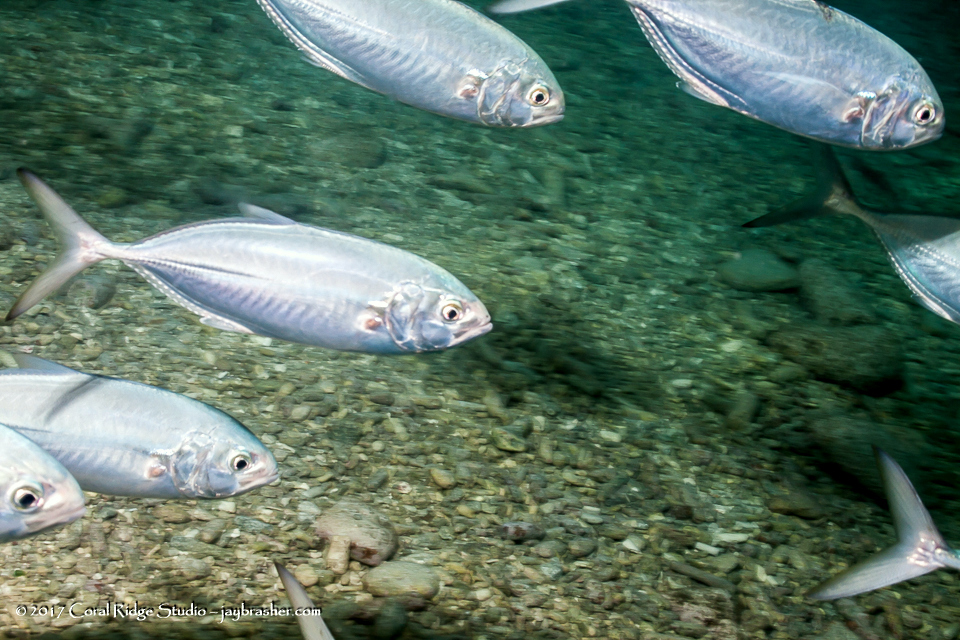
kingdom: Animalia
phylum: Chordata
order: Perciformes
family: Carangidae
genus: Caranx
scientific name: Caranx crysos
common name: Blue runner
